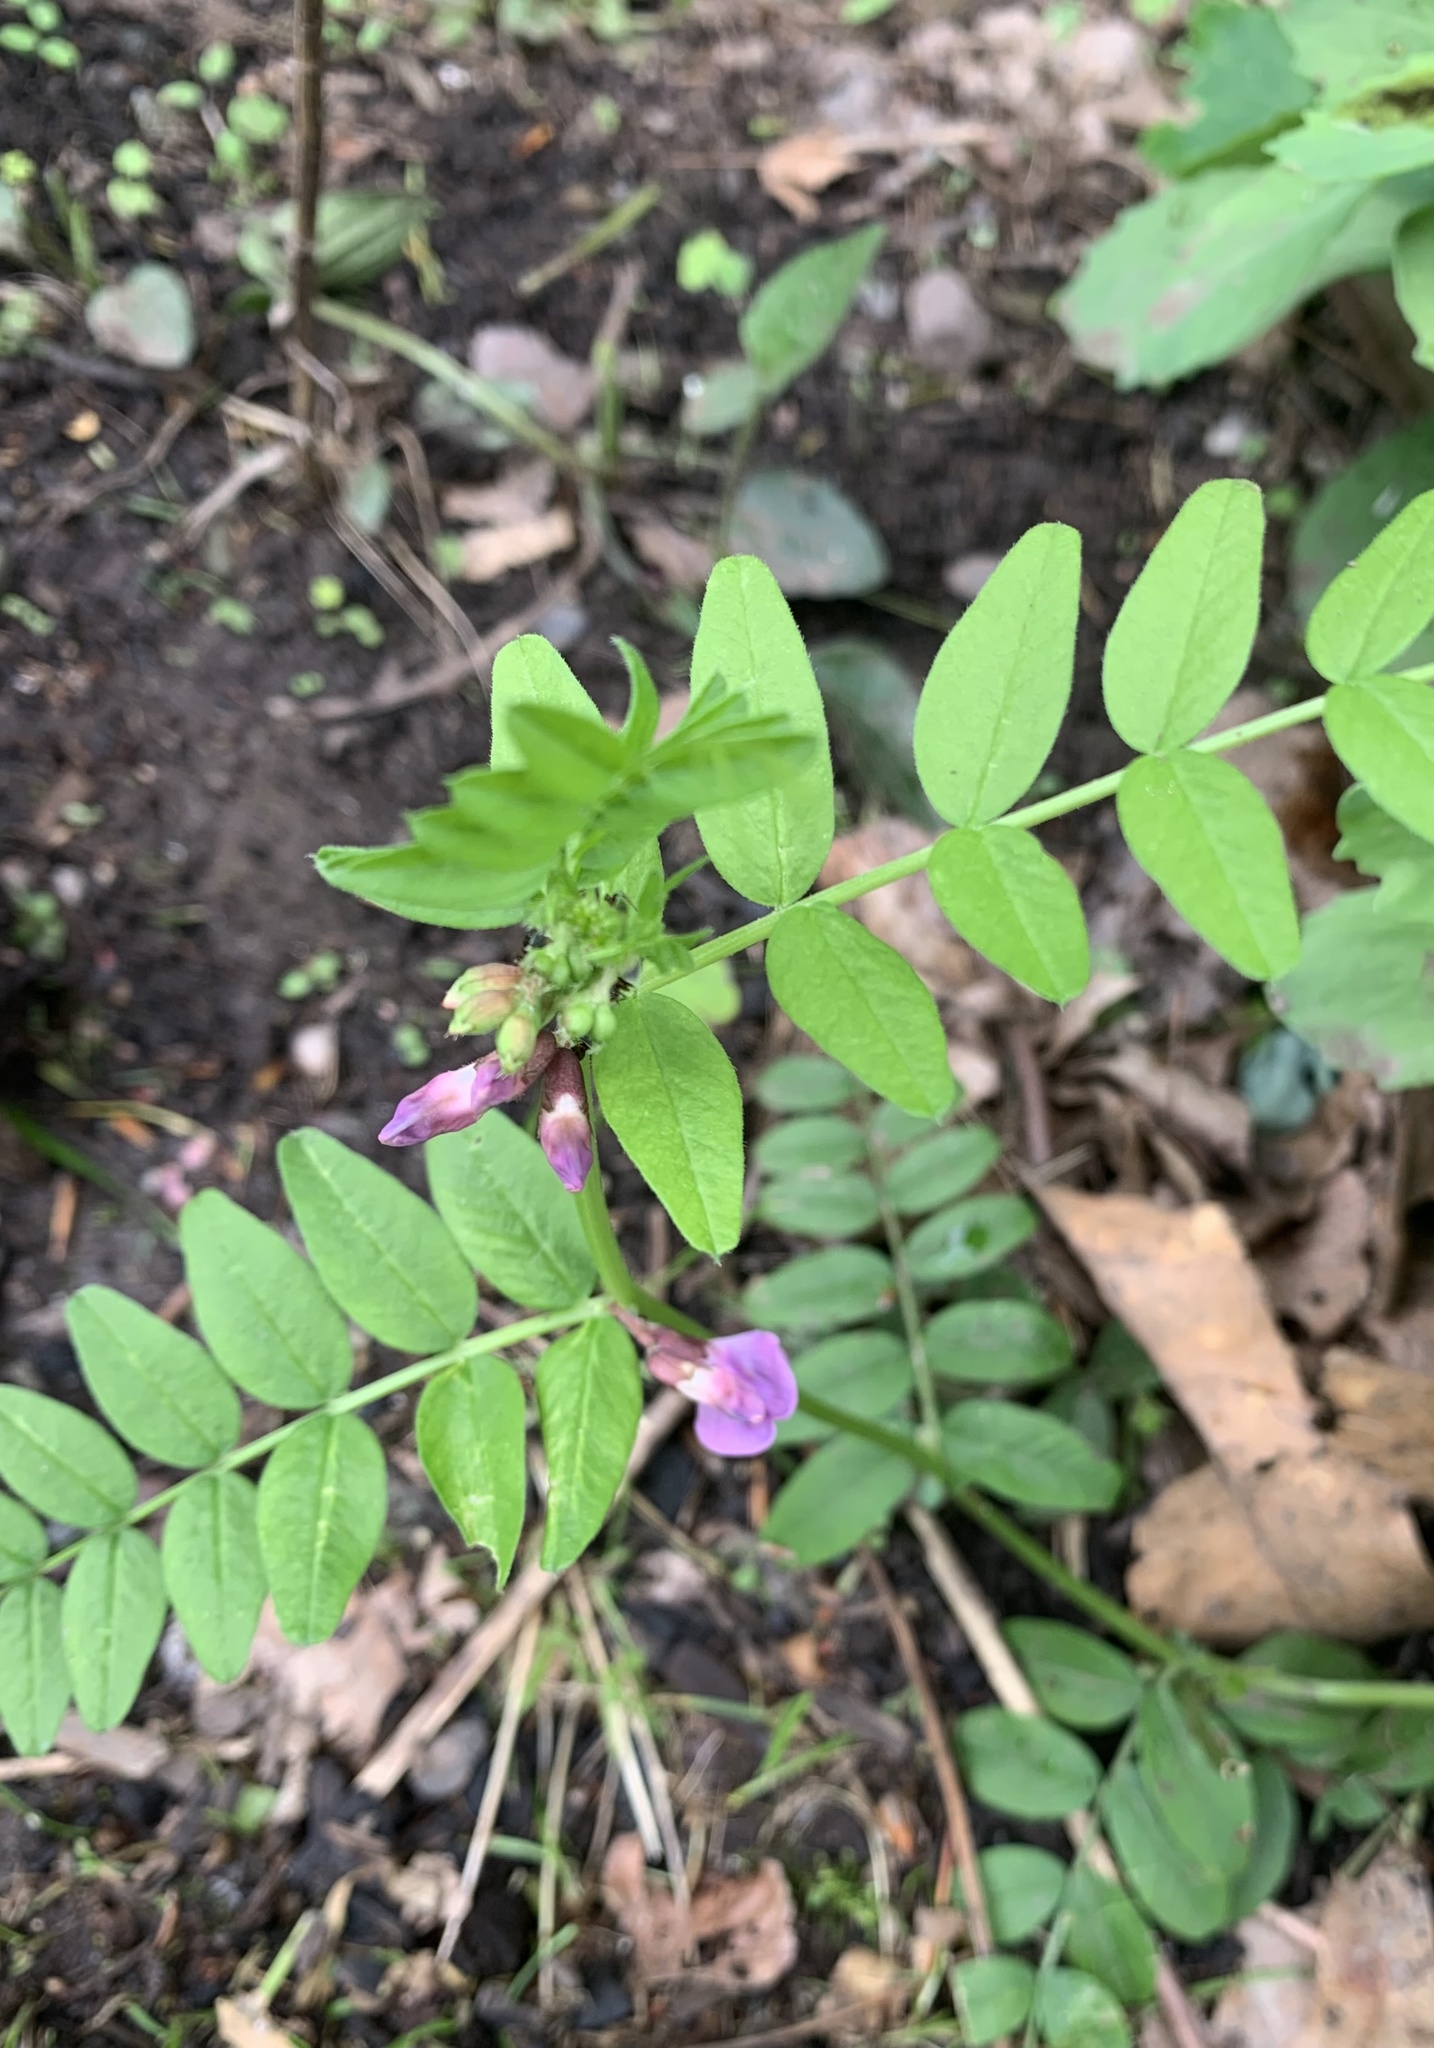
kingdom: Plantae
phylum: Tracheophyta
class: Magnoliopsida
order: Fabales
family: Fabaceae
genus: Vicia
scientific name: Vicia sepium
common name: Bush vetch
